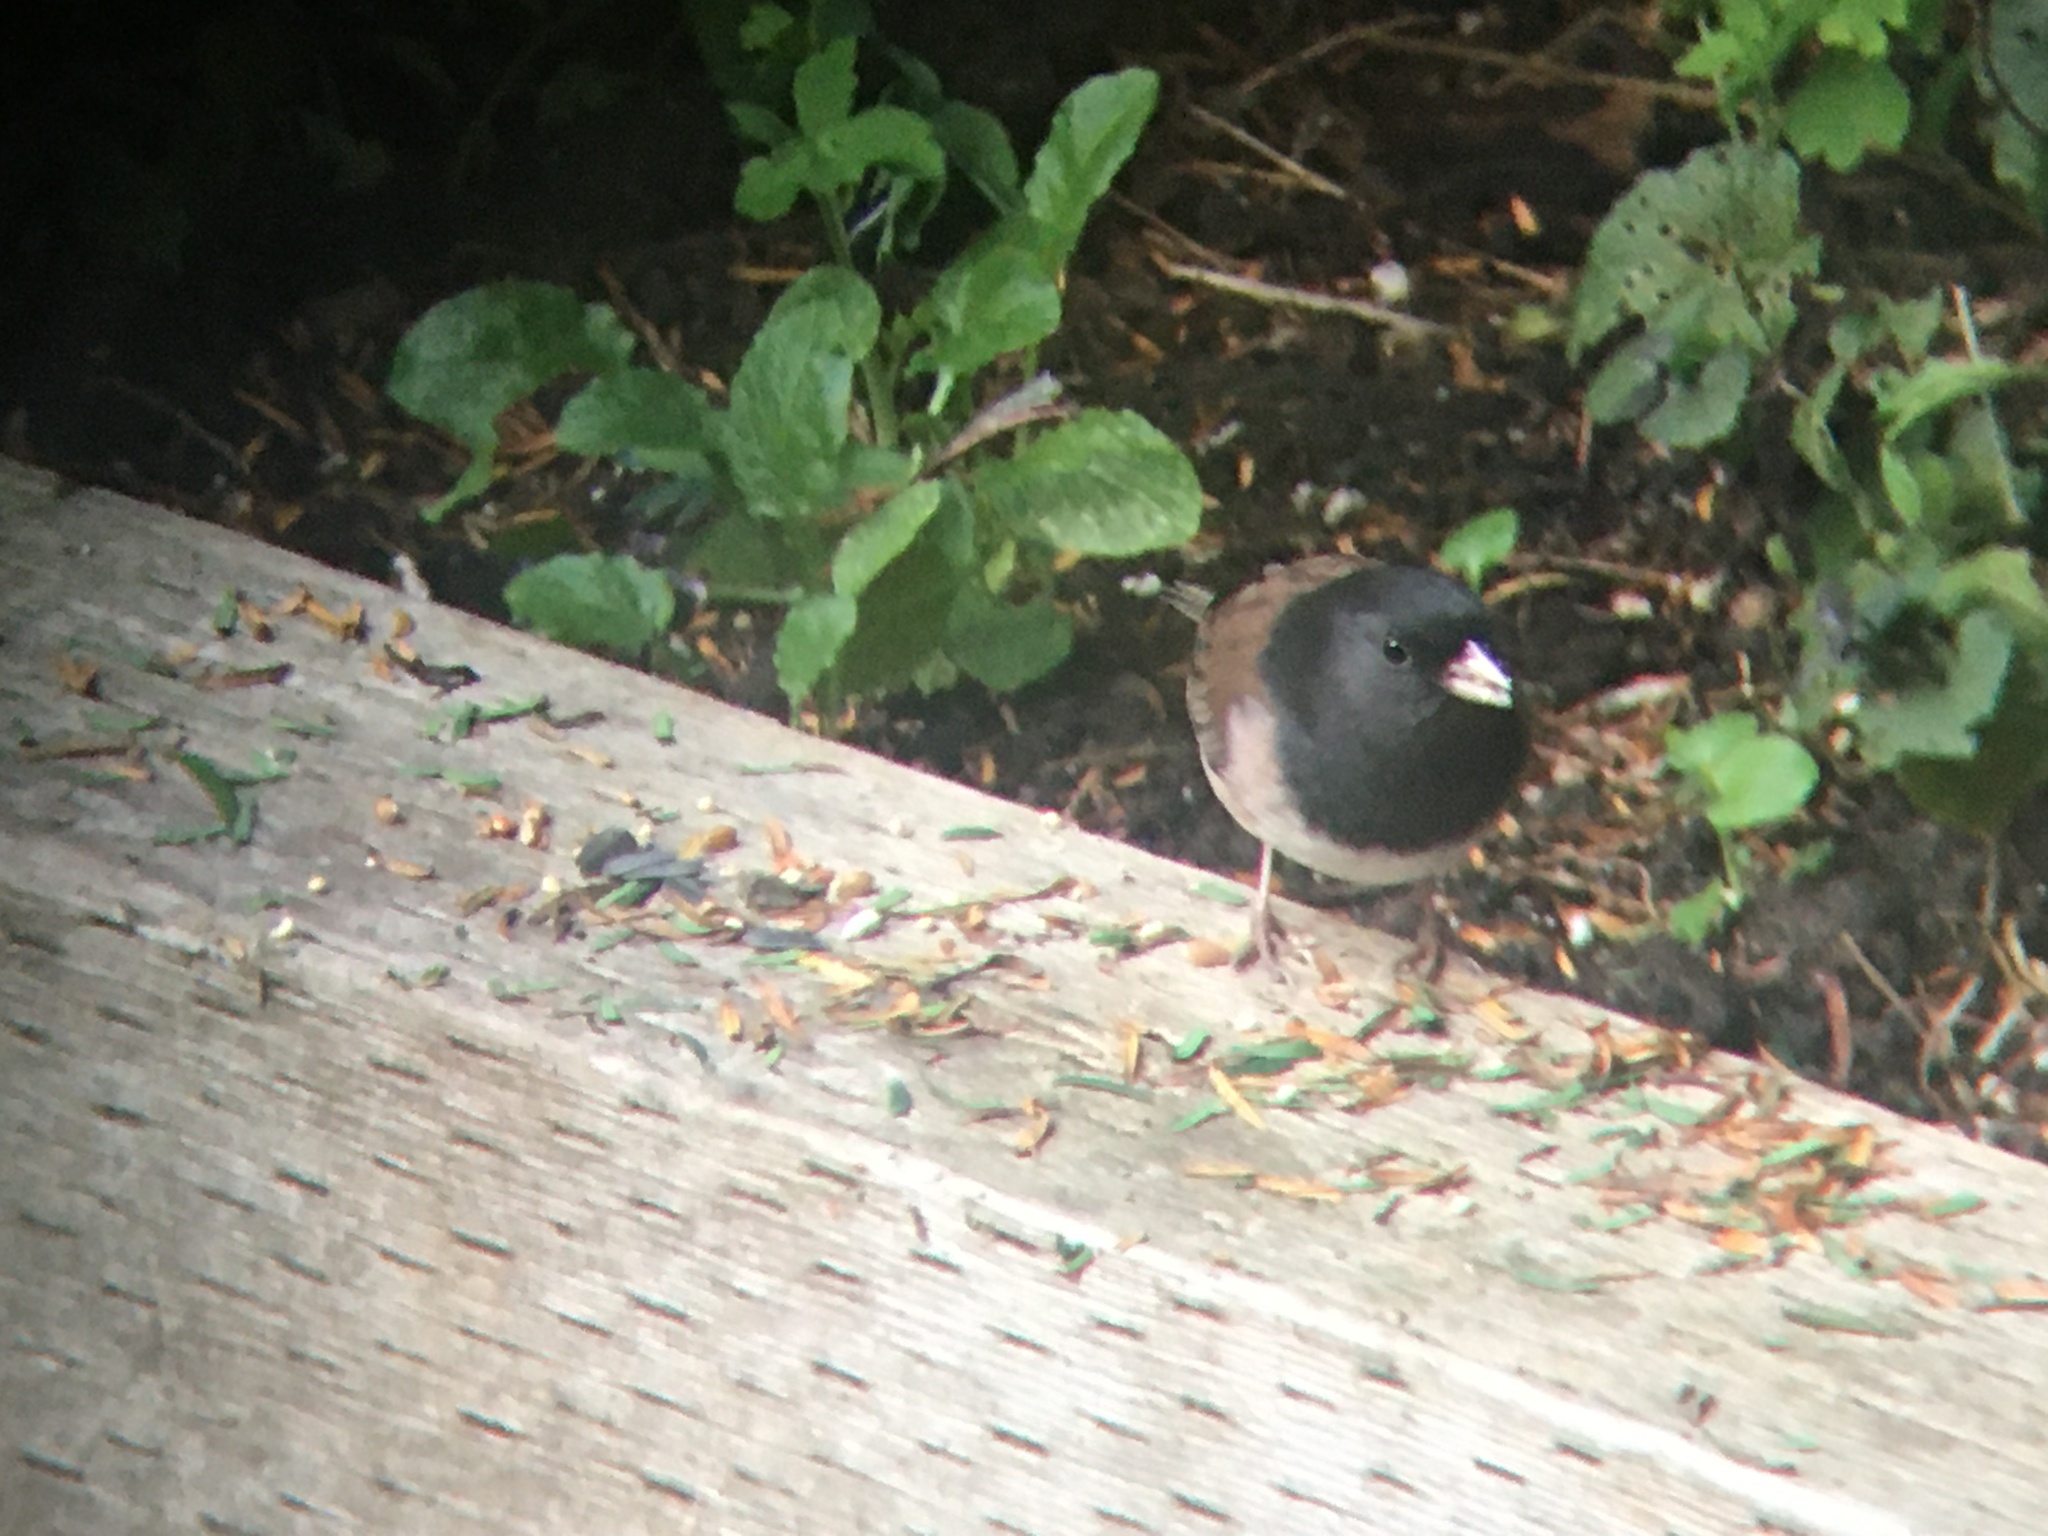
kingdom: Animalia
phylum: Chordata
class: Aves
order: Passeriformes
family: Passerellidae
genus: Junco
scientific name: Junco hyemalis
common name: Dark-eyed junco
